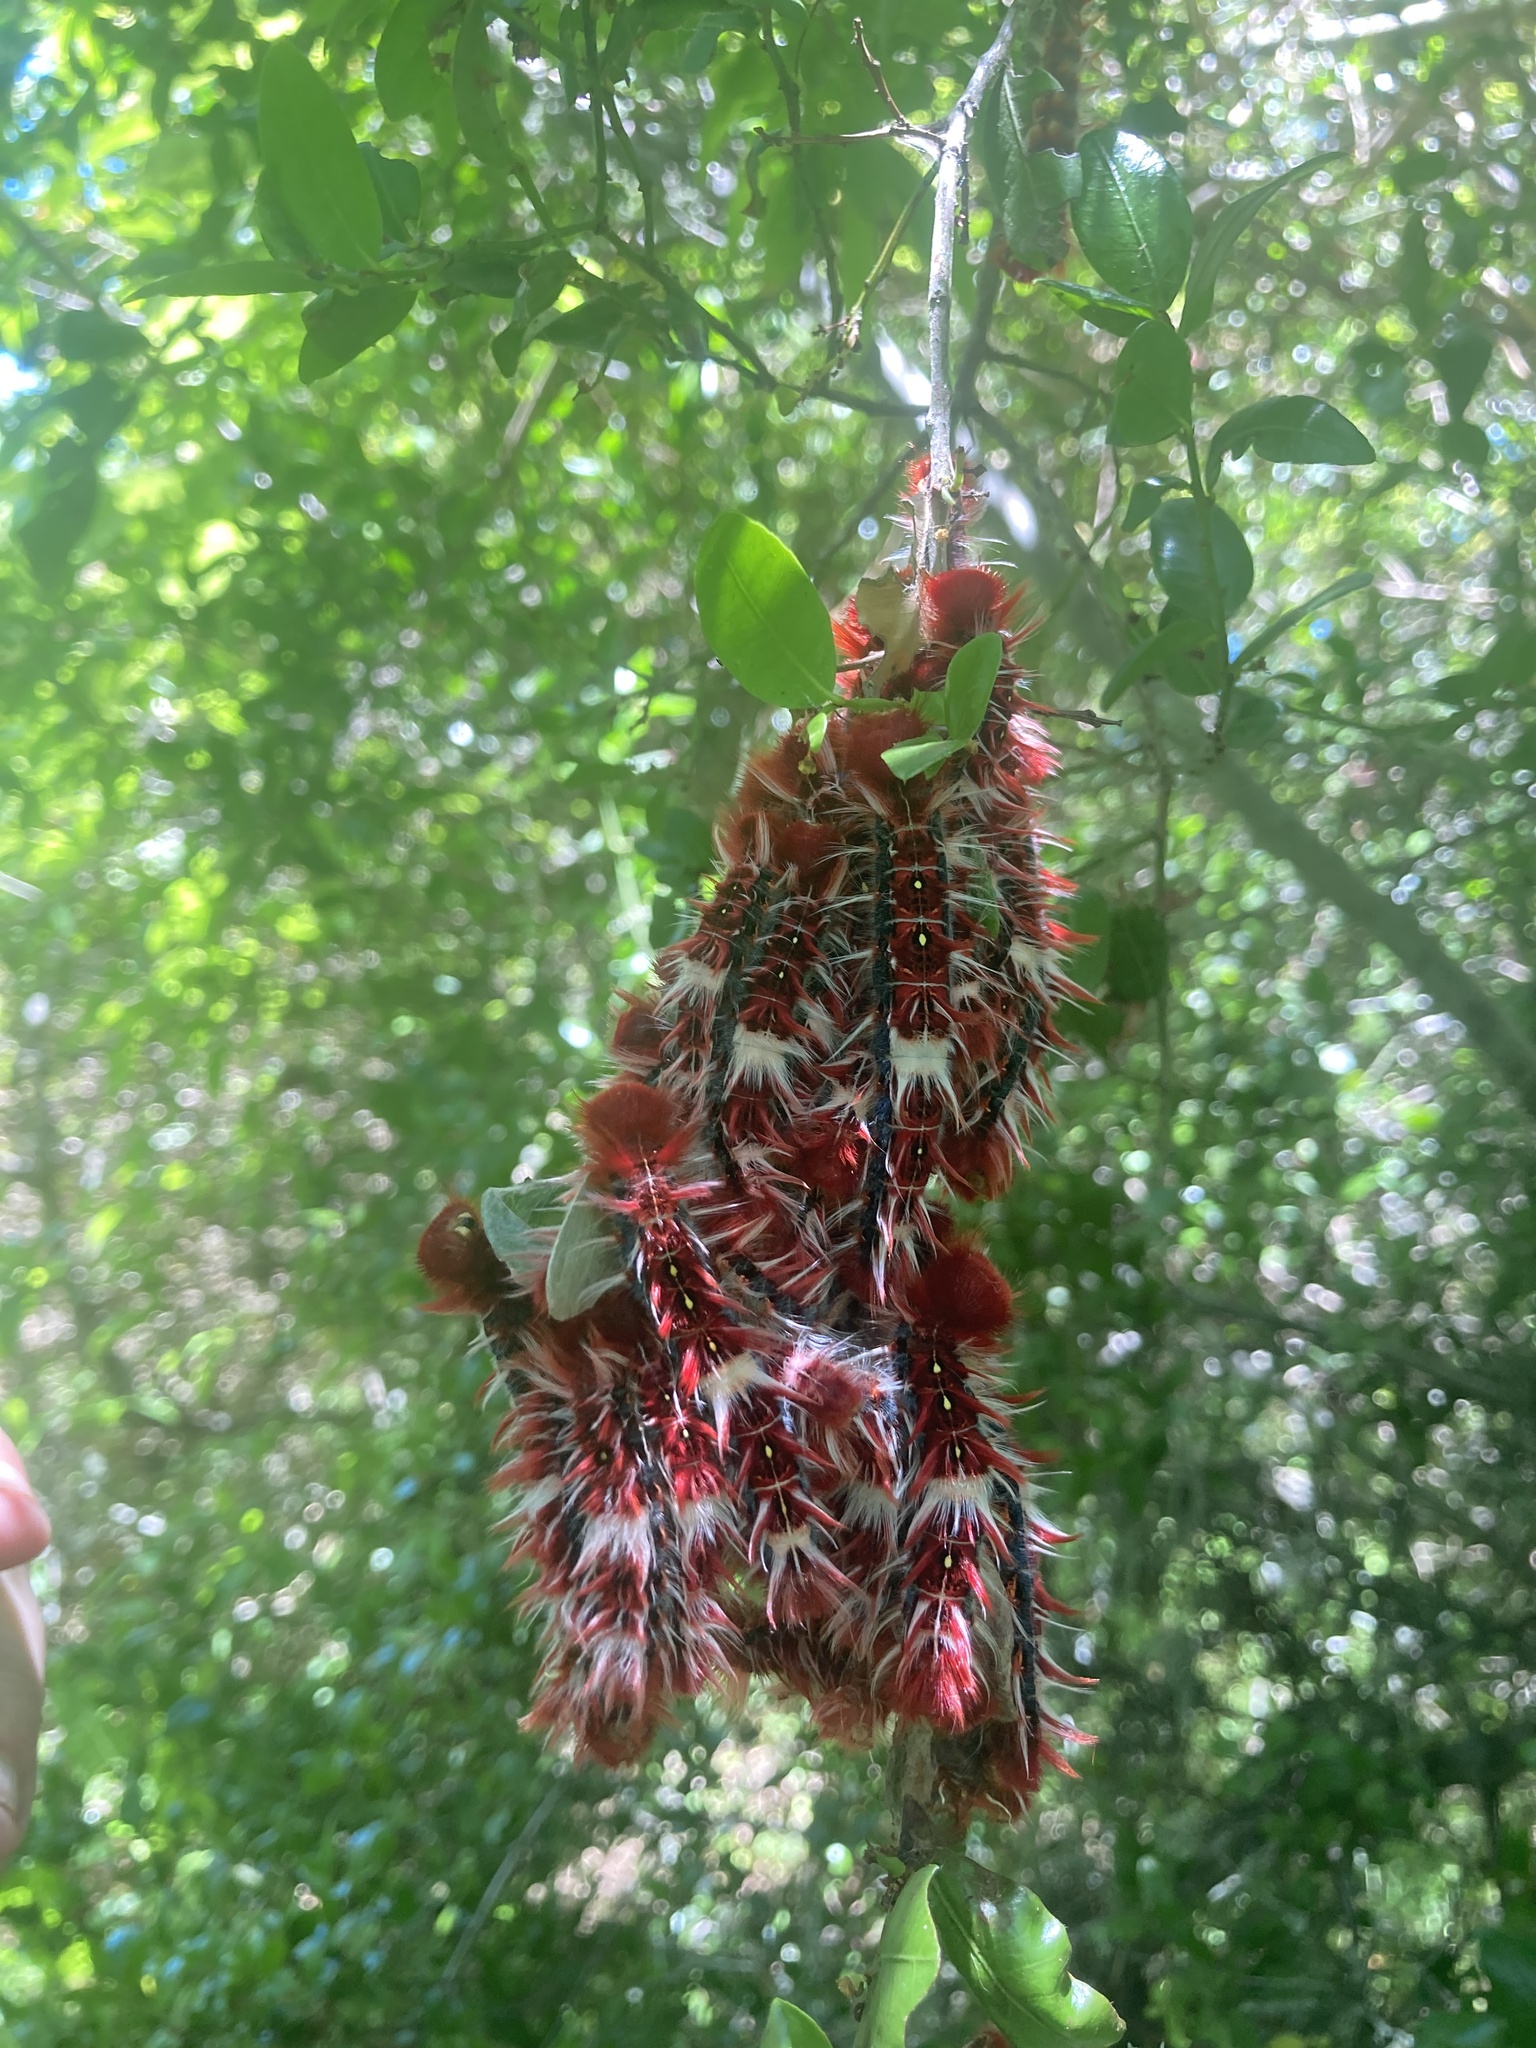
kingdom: Animalia
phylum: Arthropoda
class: Insecta
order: Lepidoptera
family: Nymphalidae
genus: Morpho
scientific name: Morpho epistrophus
